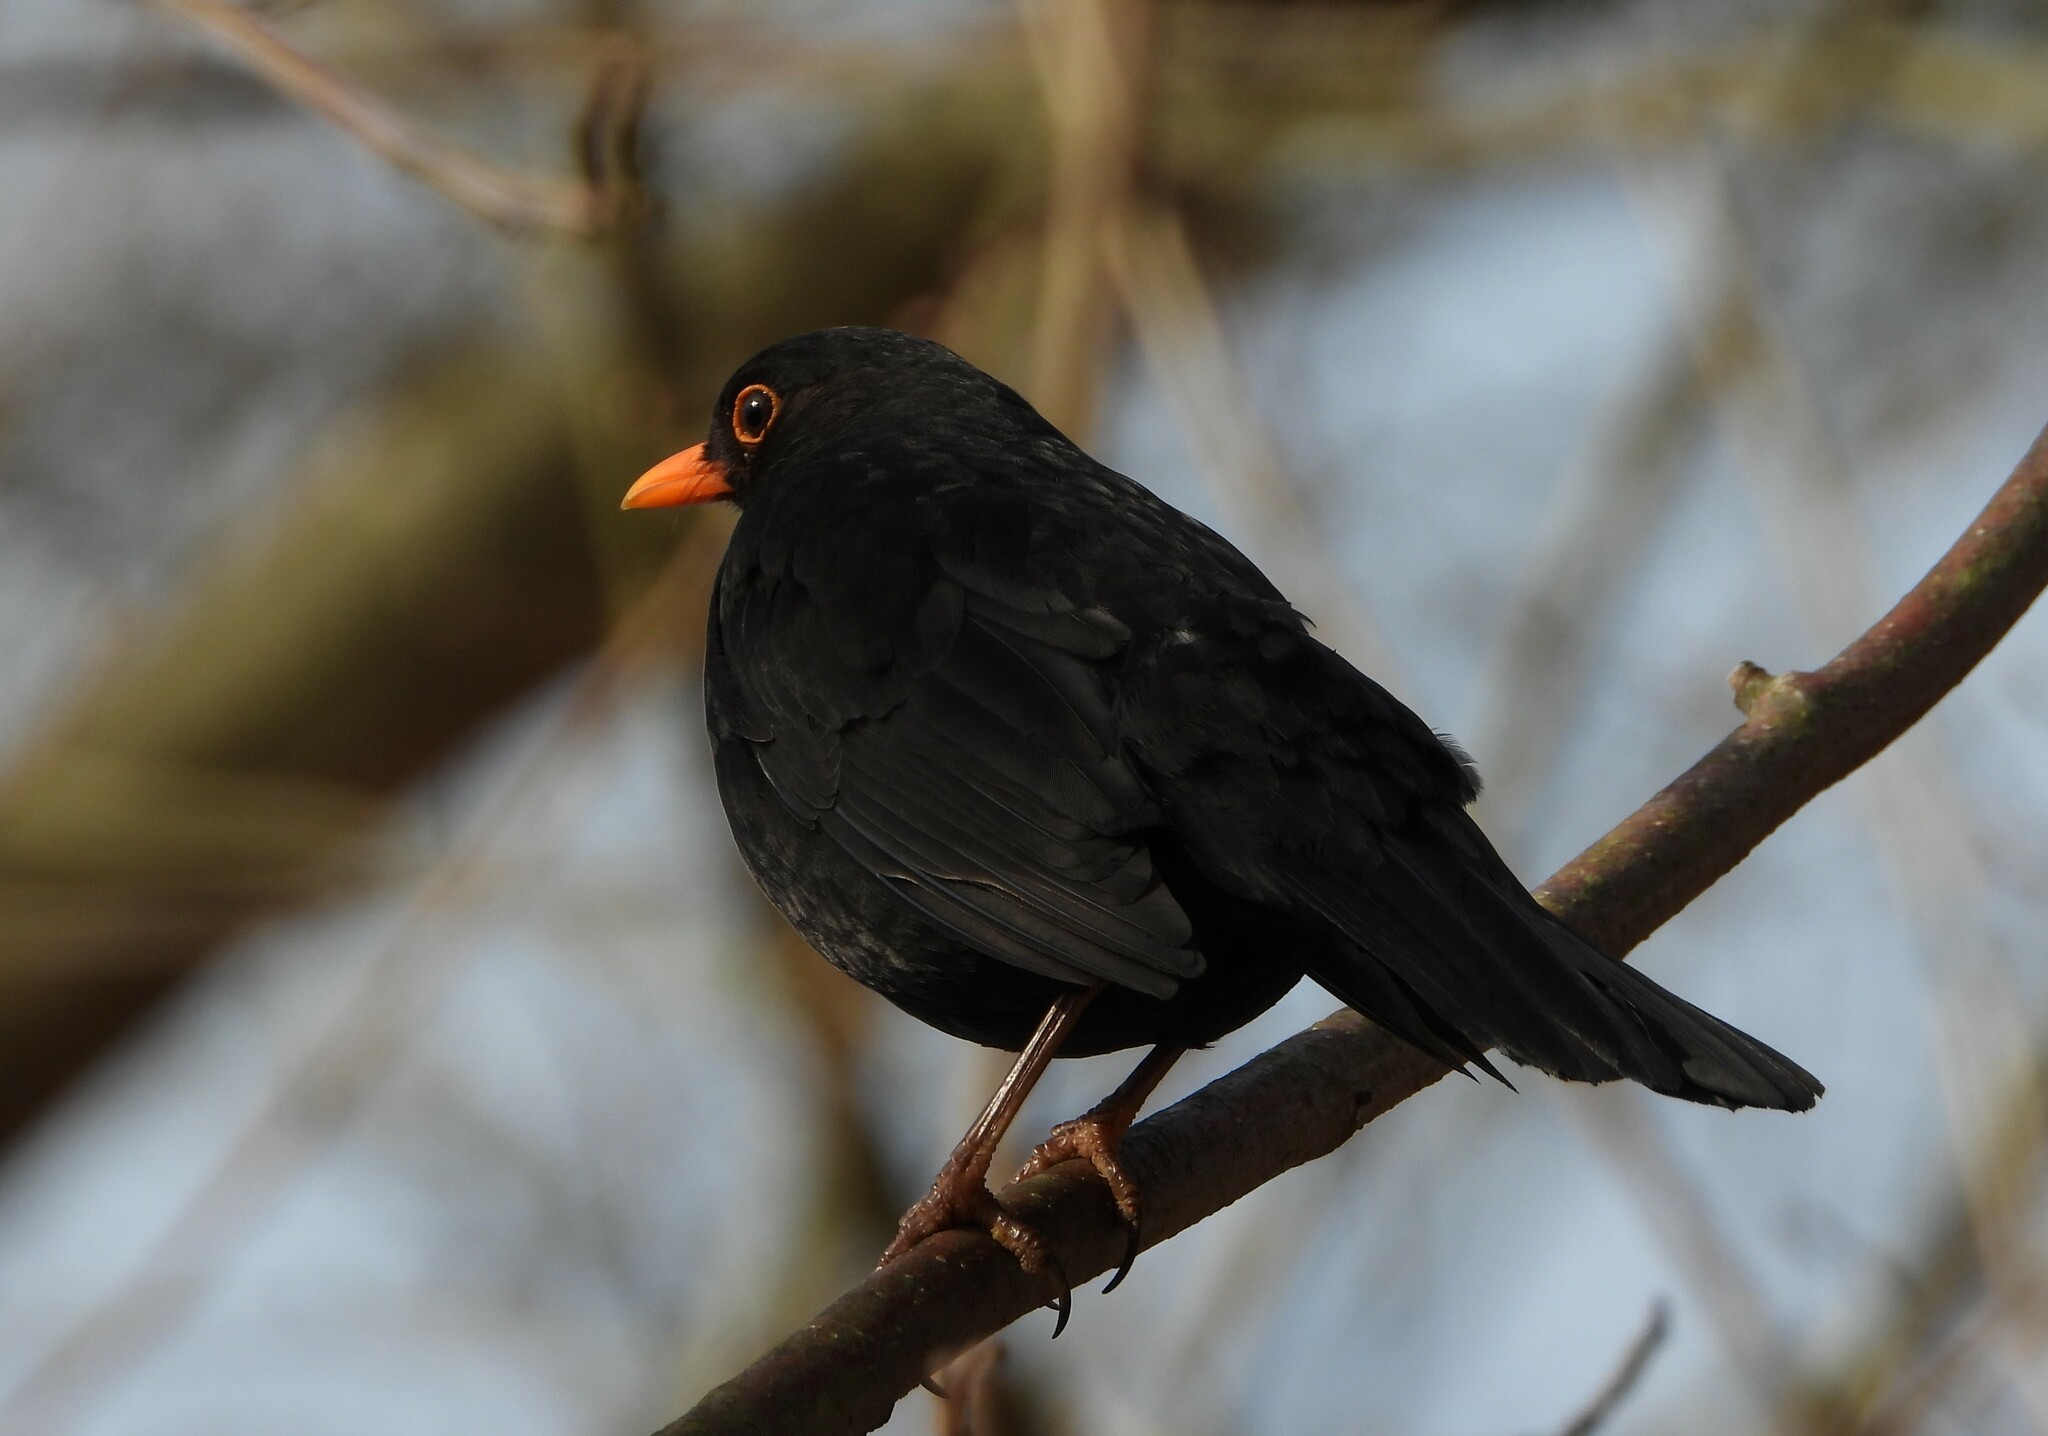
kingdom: Animalia
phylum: Chordata
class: Aves
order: Passeriformes
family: Turdidae
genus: Turdus
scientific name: Turdus merula
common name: Common blackbird
